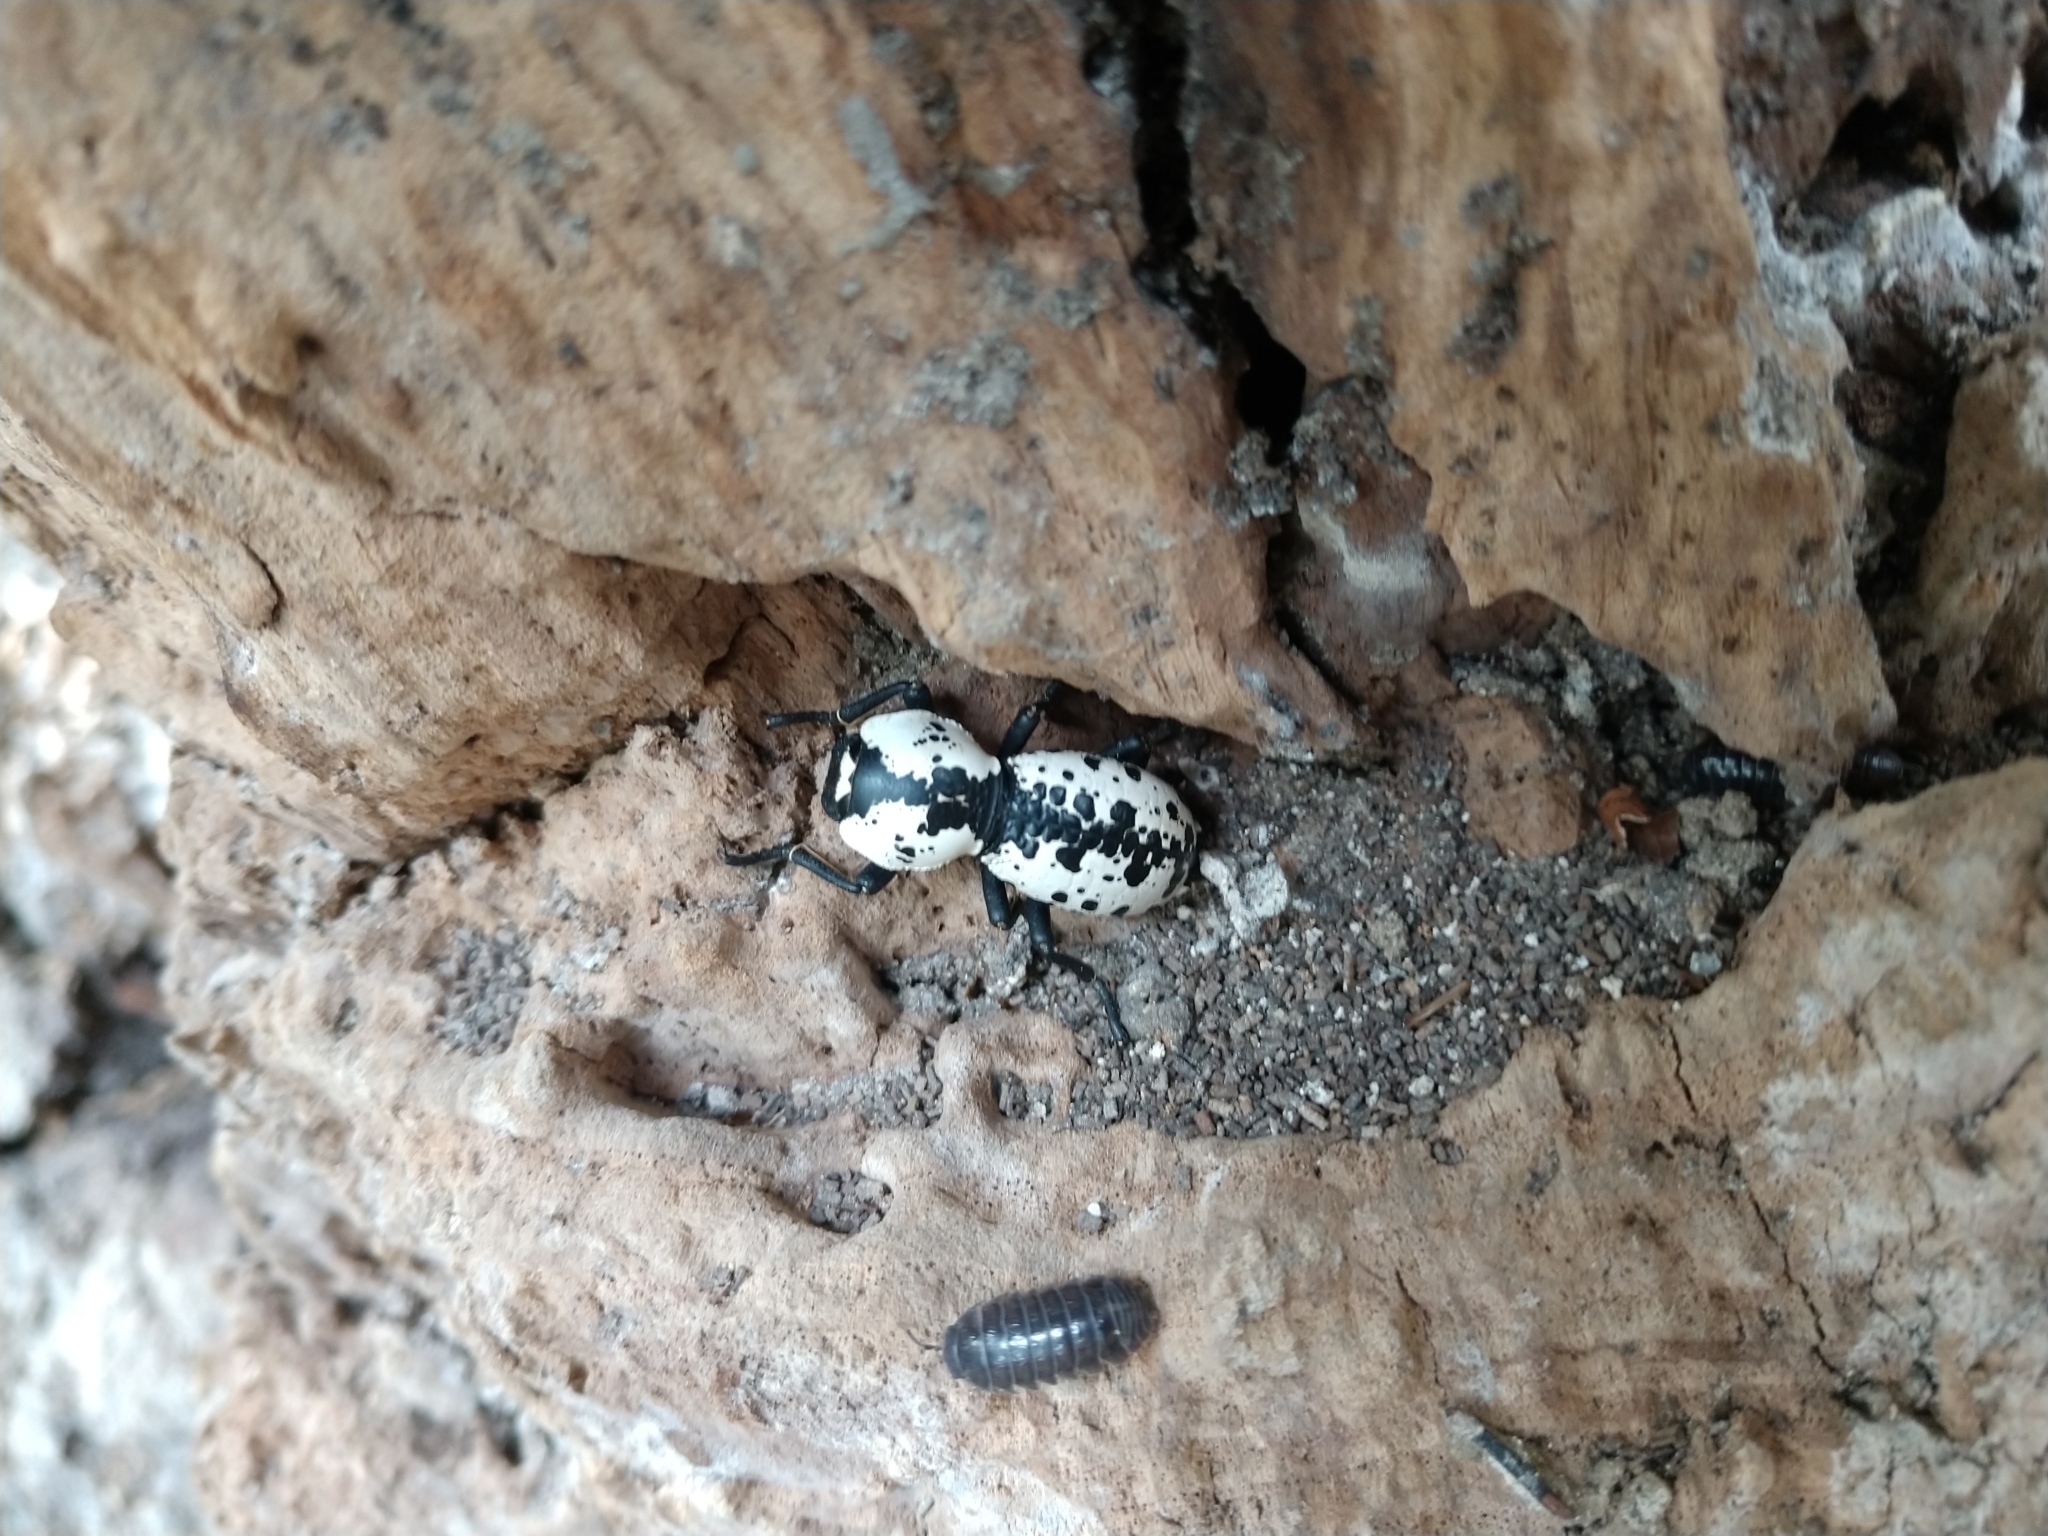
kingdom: Animalia
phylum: Arthropoda
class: Insecta
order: Coleoptera
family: Zopheridae
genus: Zopherus
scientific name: Zopherus nodulosus
